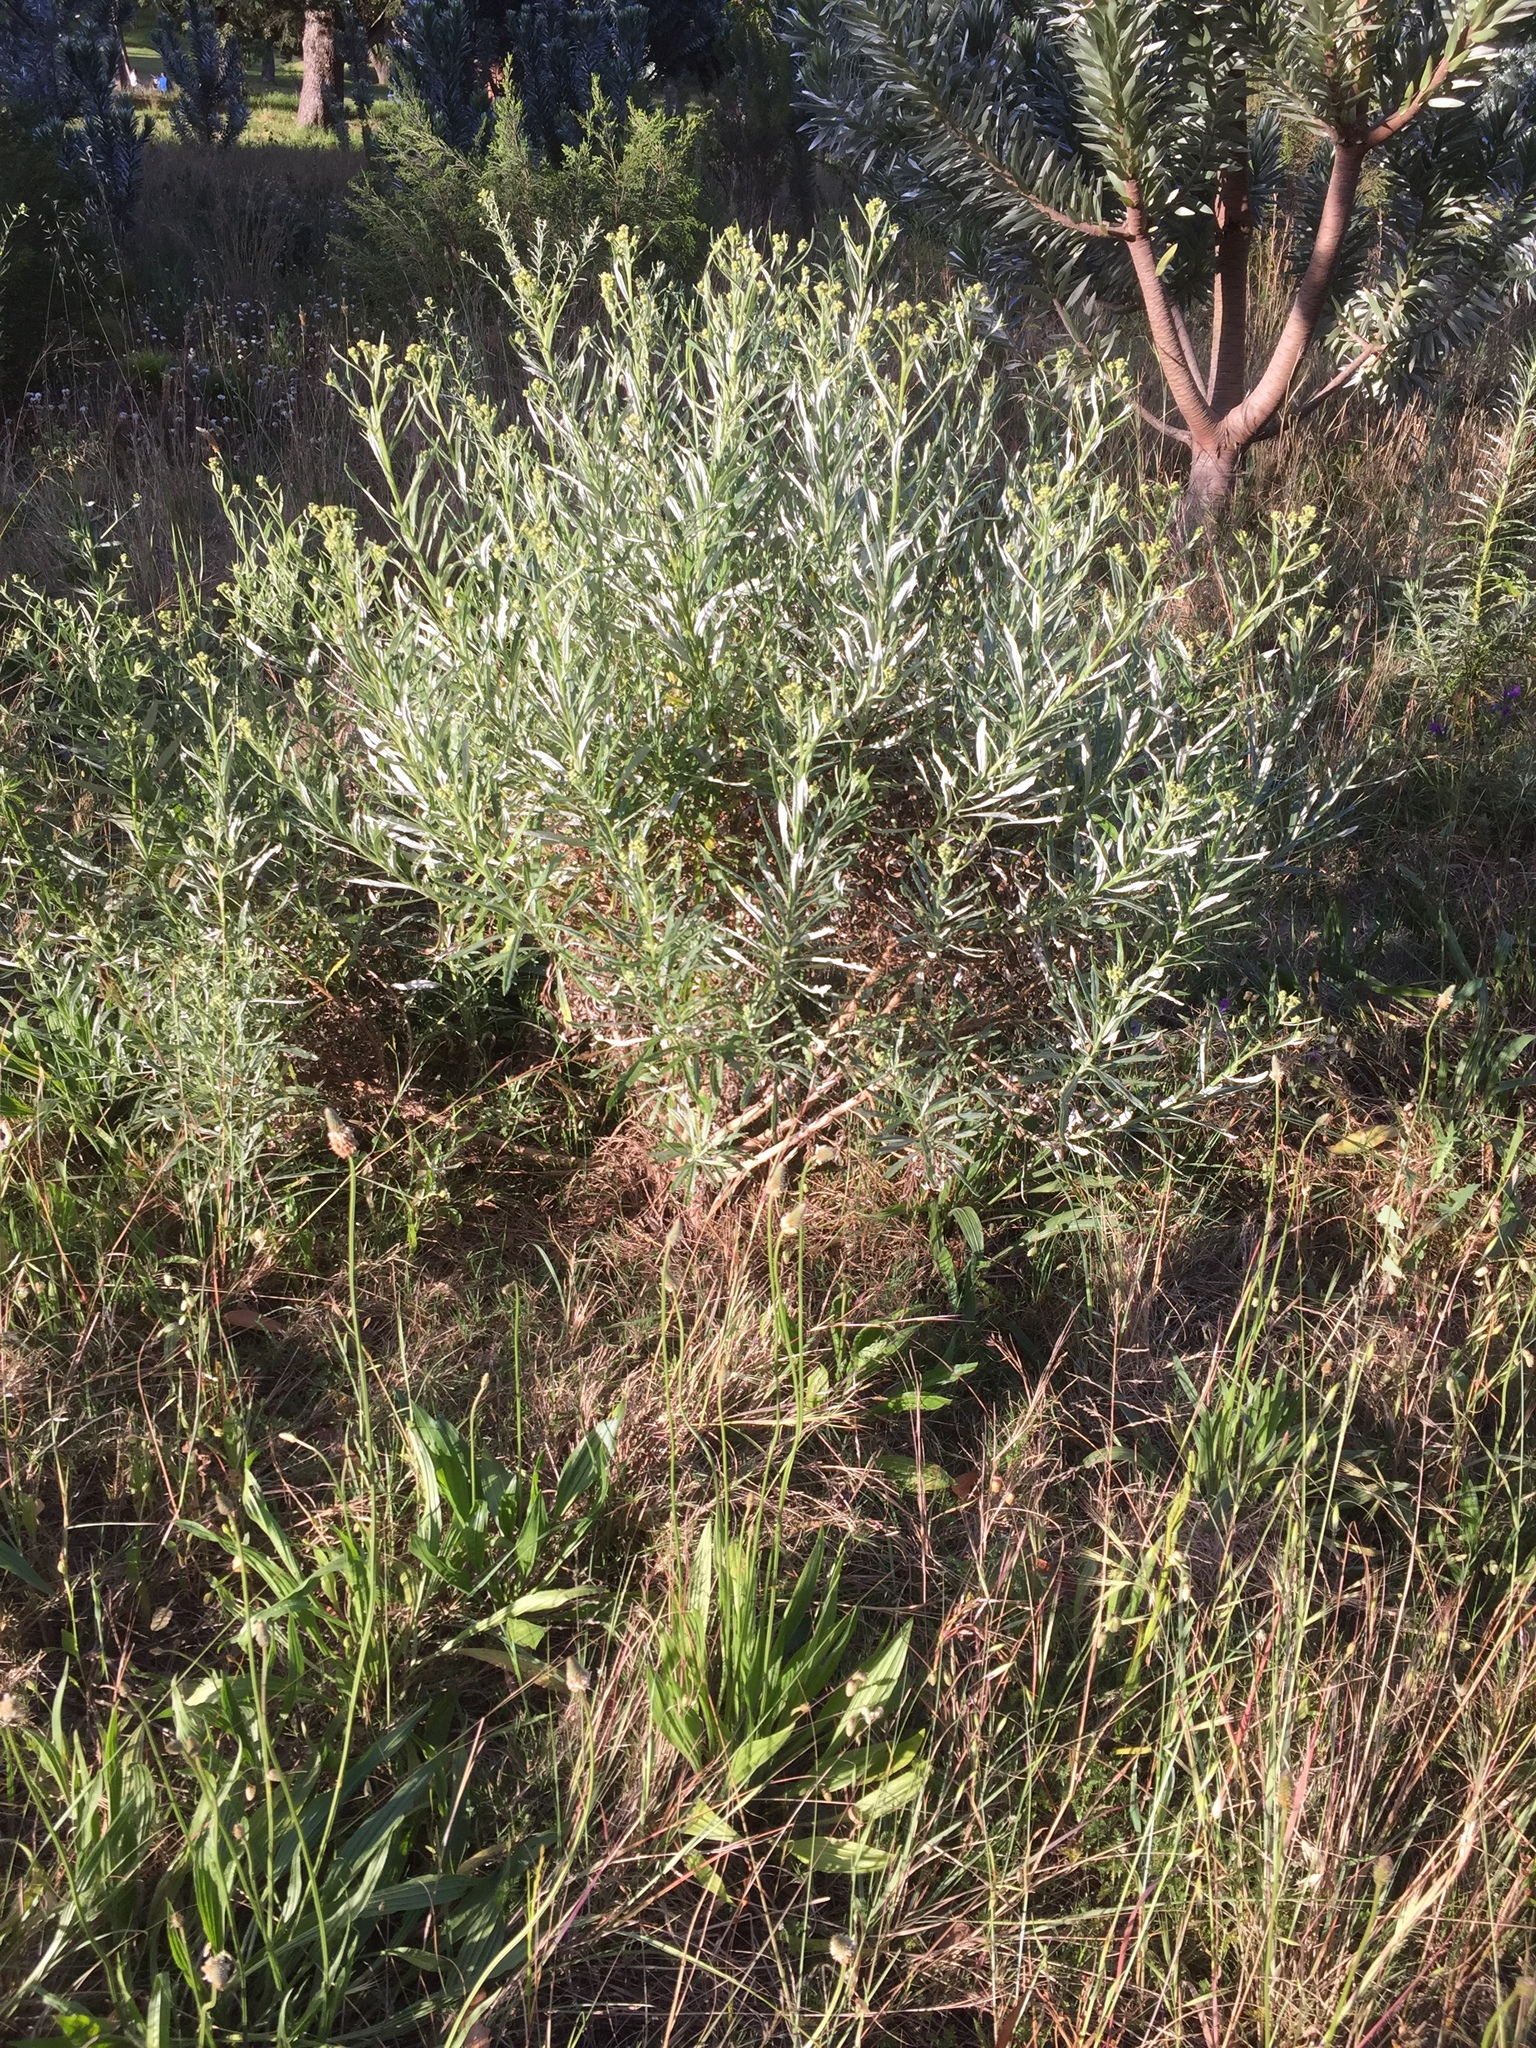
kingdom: Plantae
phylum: Tracheophyta
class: Magnoliopsida
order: Asterales
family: Asteraceae
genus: Senecio
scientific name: Senecio pterophorus
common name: Shoddy ragwort
